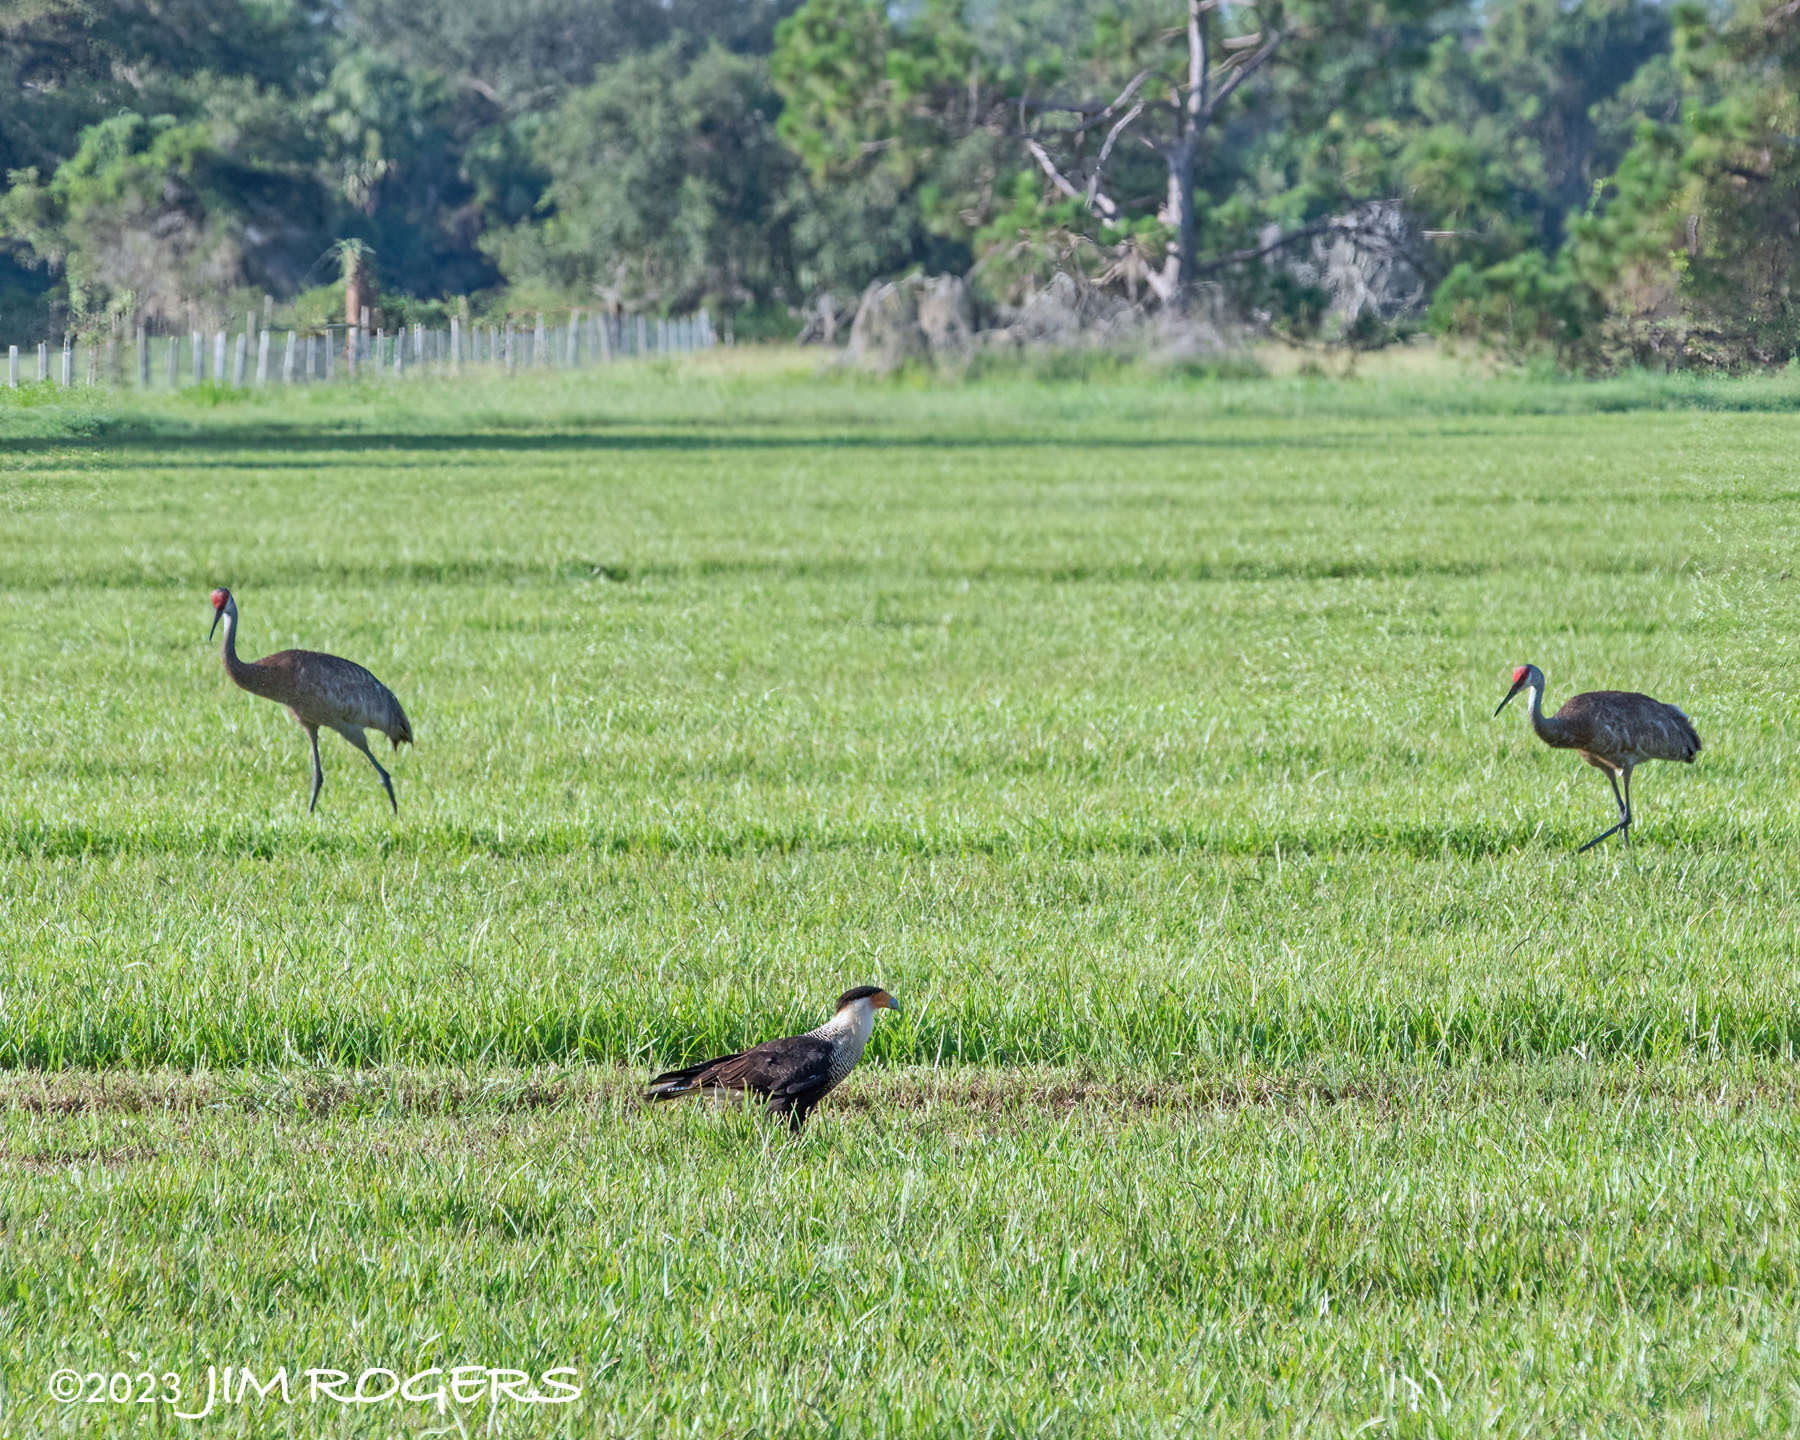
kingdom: Animalia
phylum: Chordata
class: Aves
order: Falconiformes
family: Falconidae
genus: Caracara
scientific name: Caracara plancus
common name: Southern caracara
